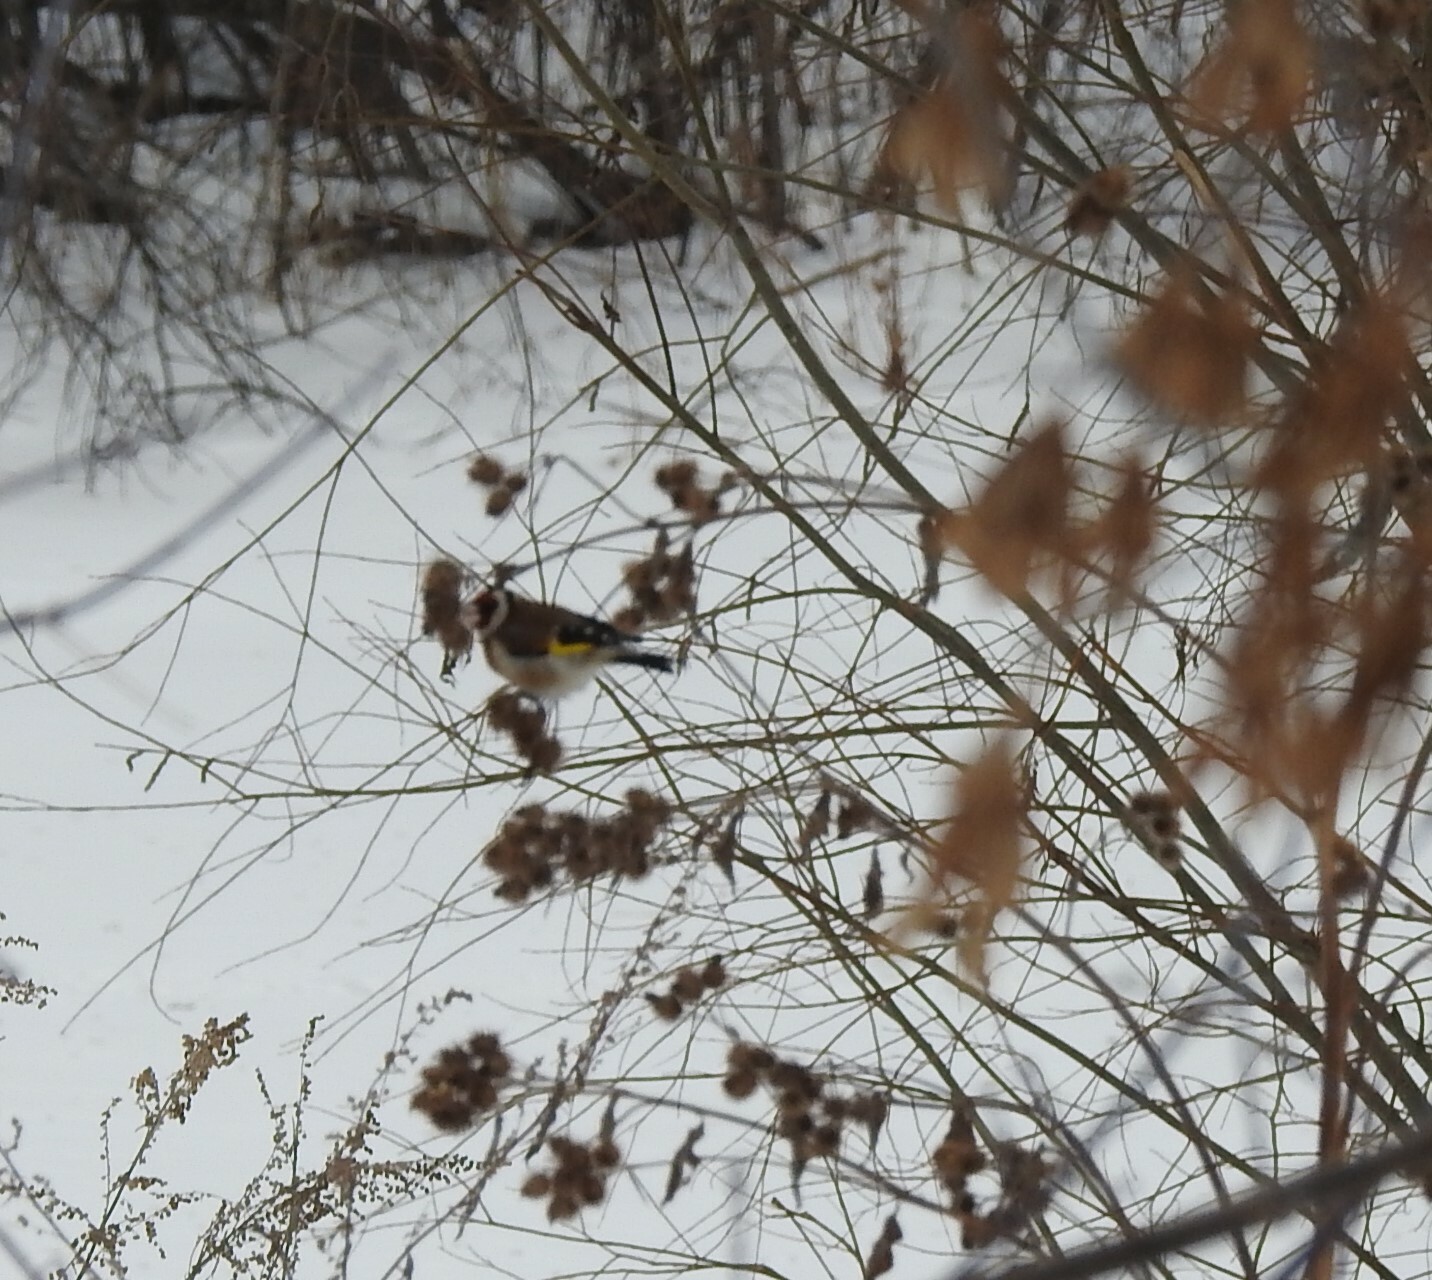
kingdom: Animalia
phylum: Chordata
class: Aves
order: Passeriformes
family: Fringillidae
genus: Carduelis
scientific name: Carduelis carduelis
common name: European goldfinch
